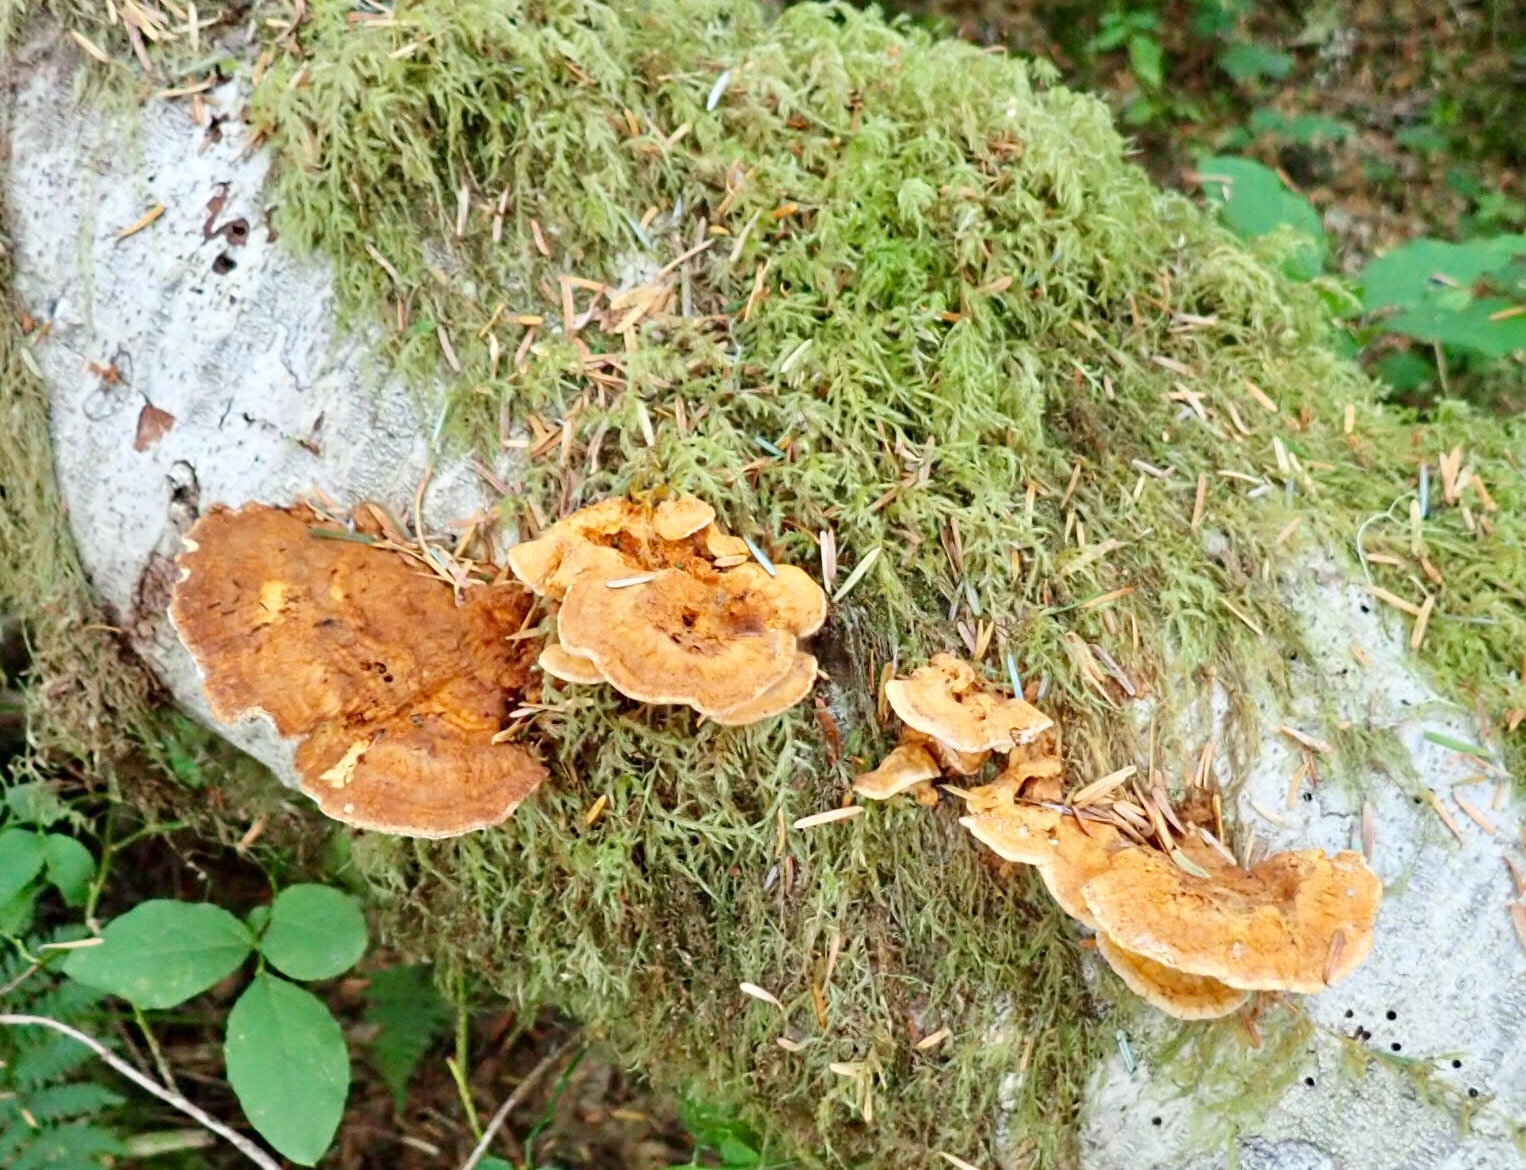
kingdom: Fungi
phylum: Basidiomycota
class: Agaricomycetes
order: Polyporales
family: Pycnoporellaceae
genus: Pycnoporellus
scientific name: Pycnoporellus fulgens
